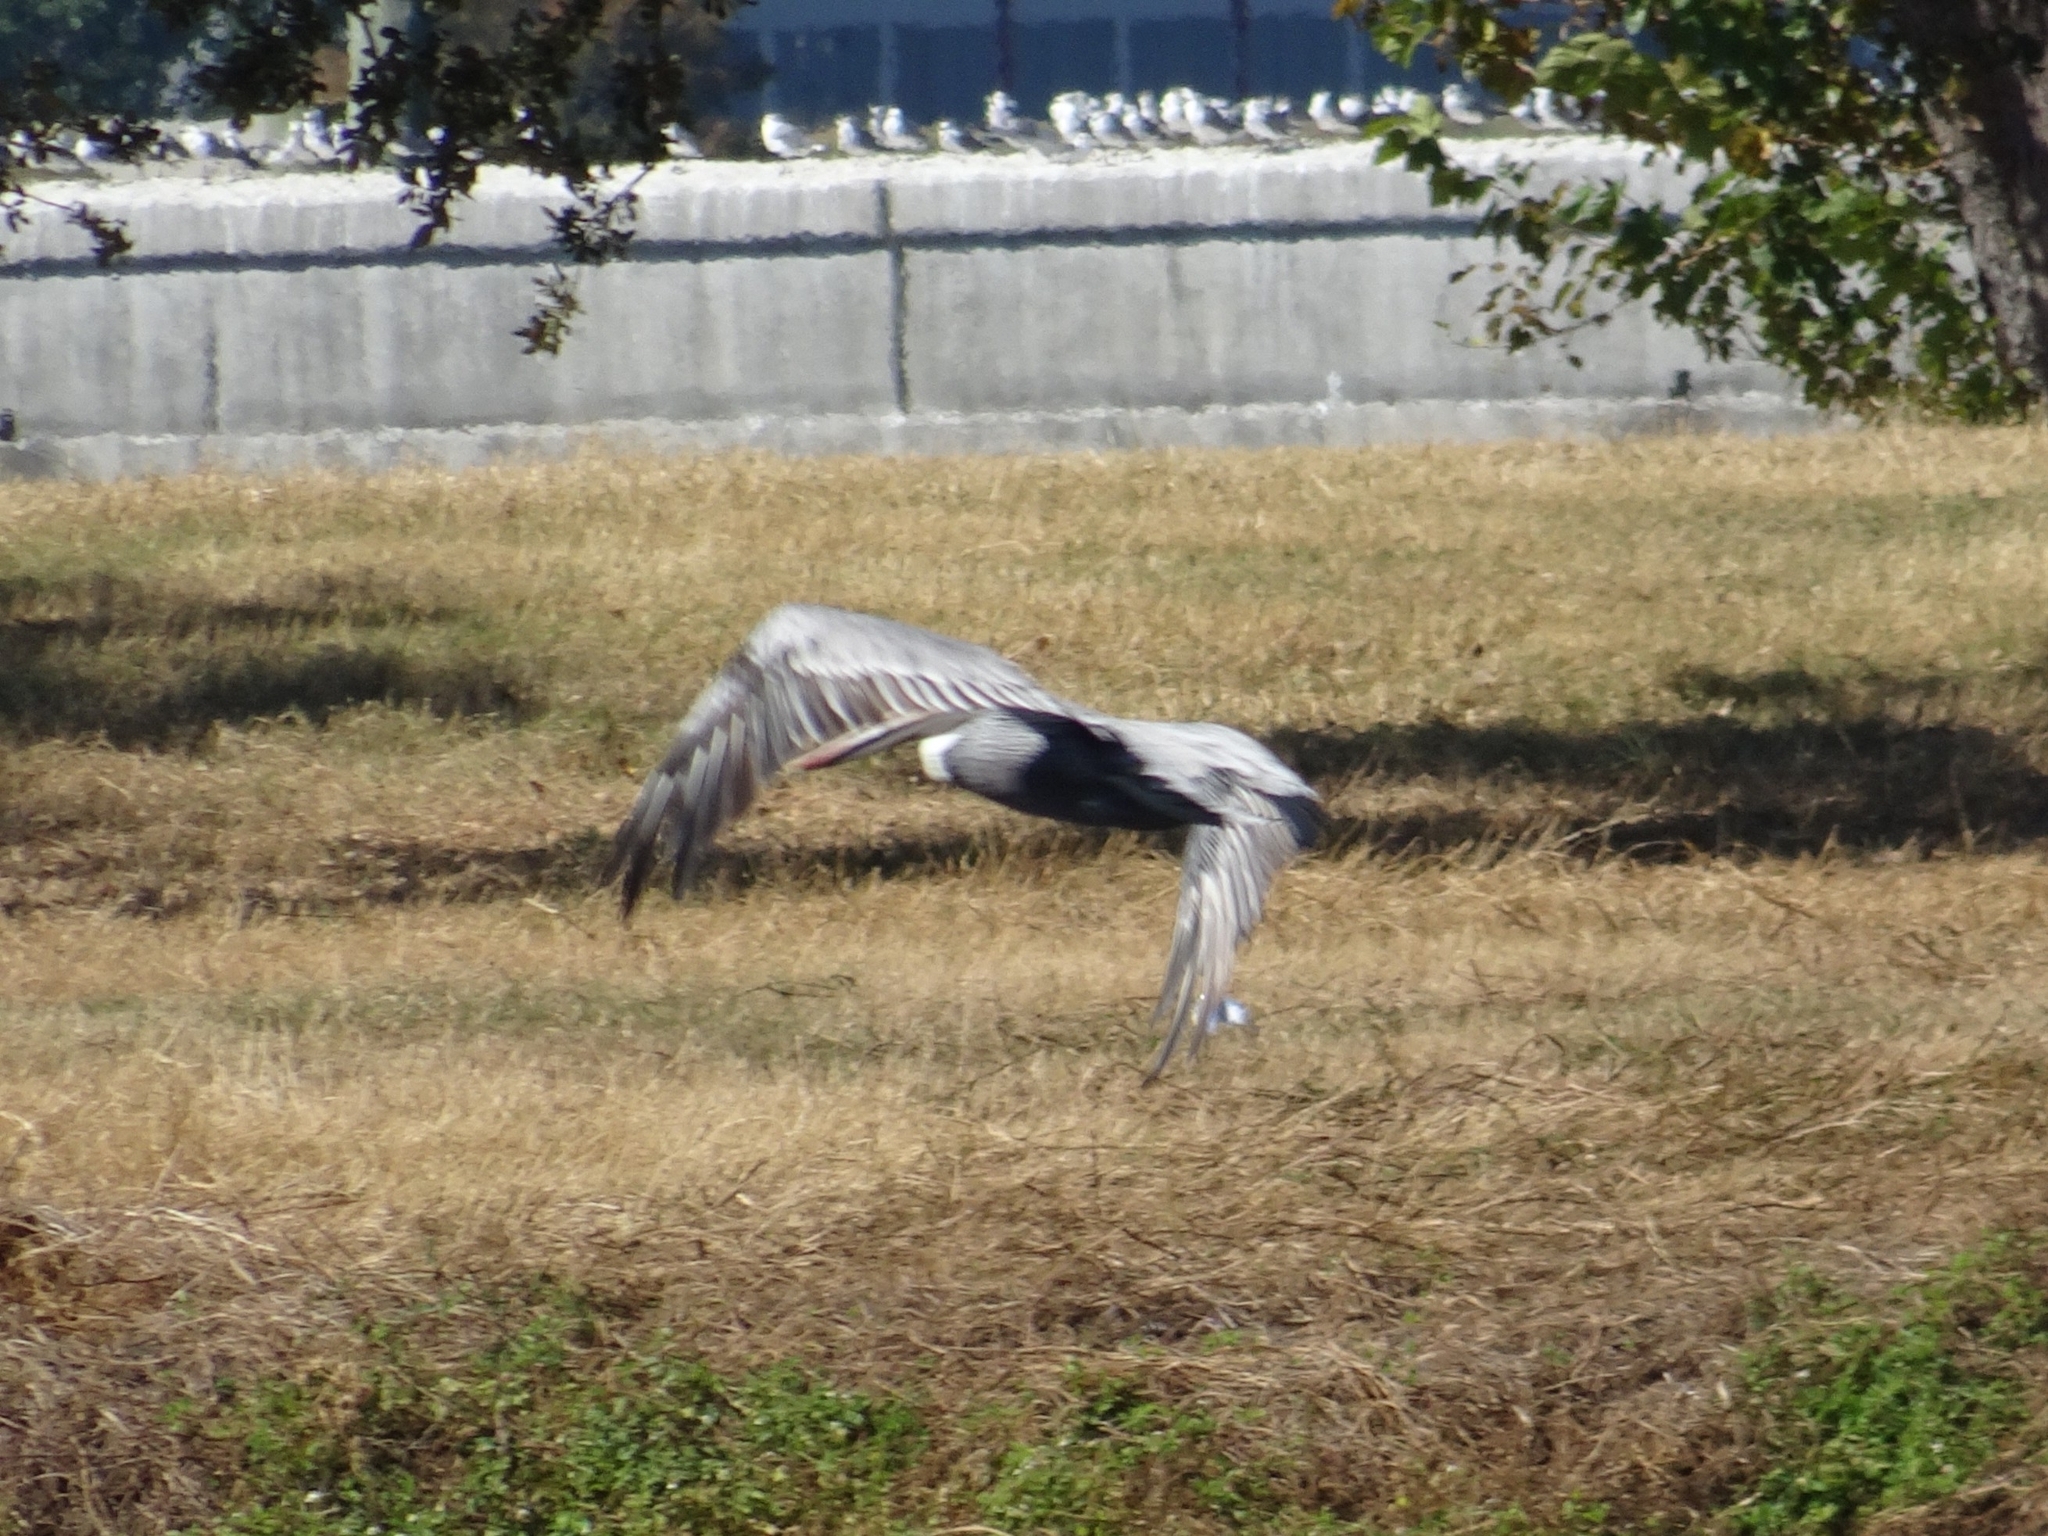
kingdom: Animalia
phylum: Chordata
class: Aves
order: Pelecaniformes
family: Pelecanidae
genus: Pelecanus
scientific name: Pelecanus occidentalis
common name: Brown pelican
